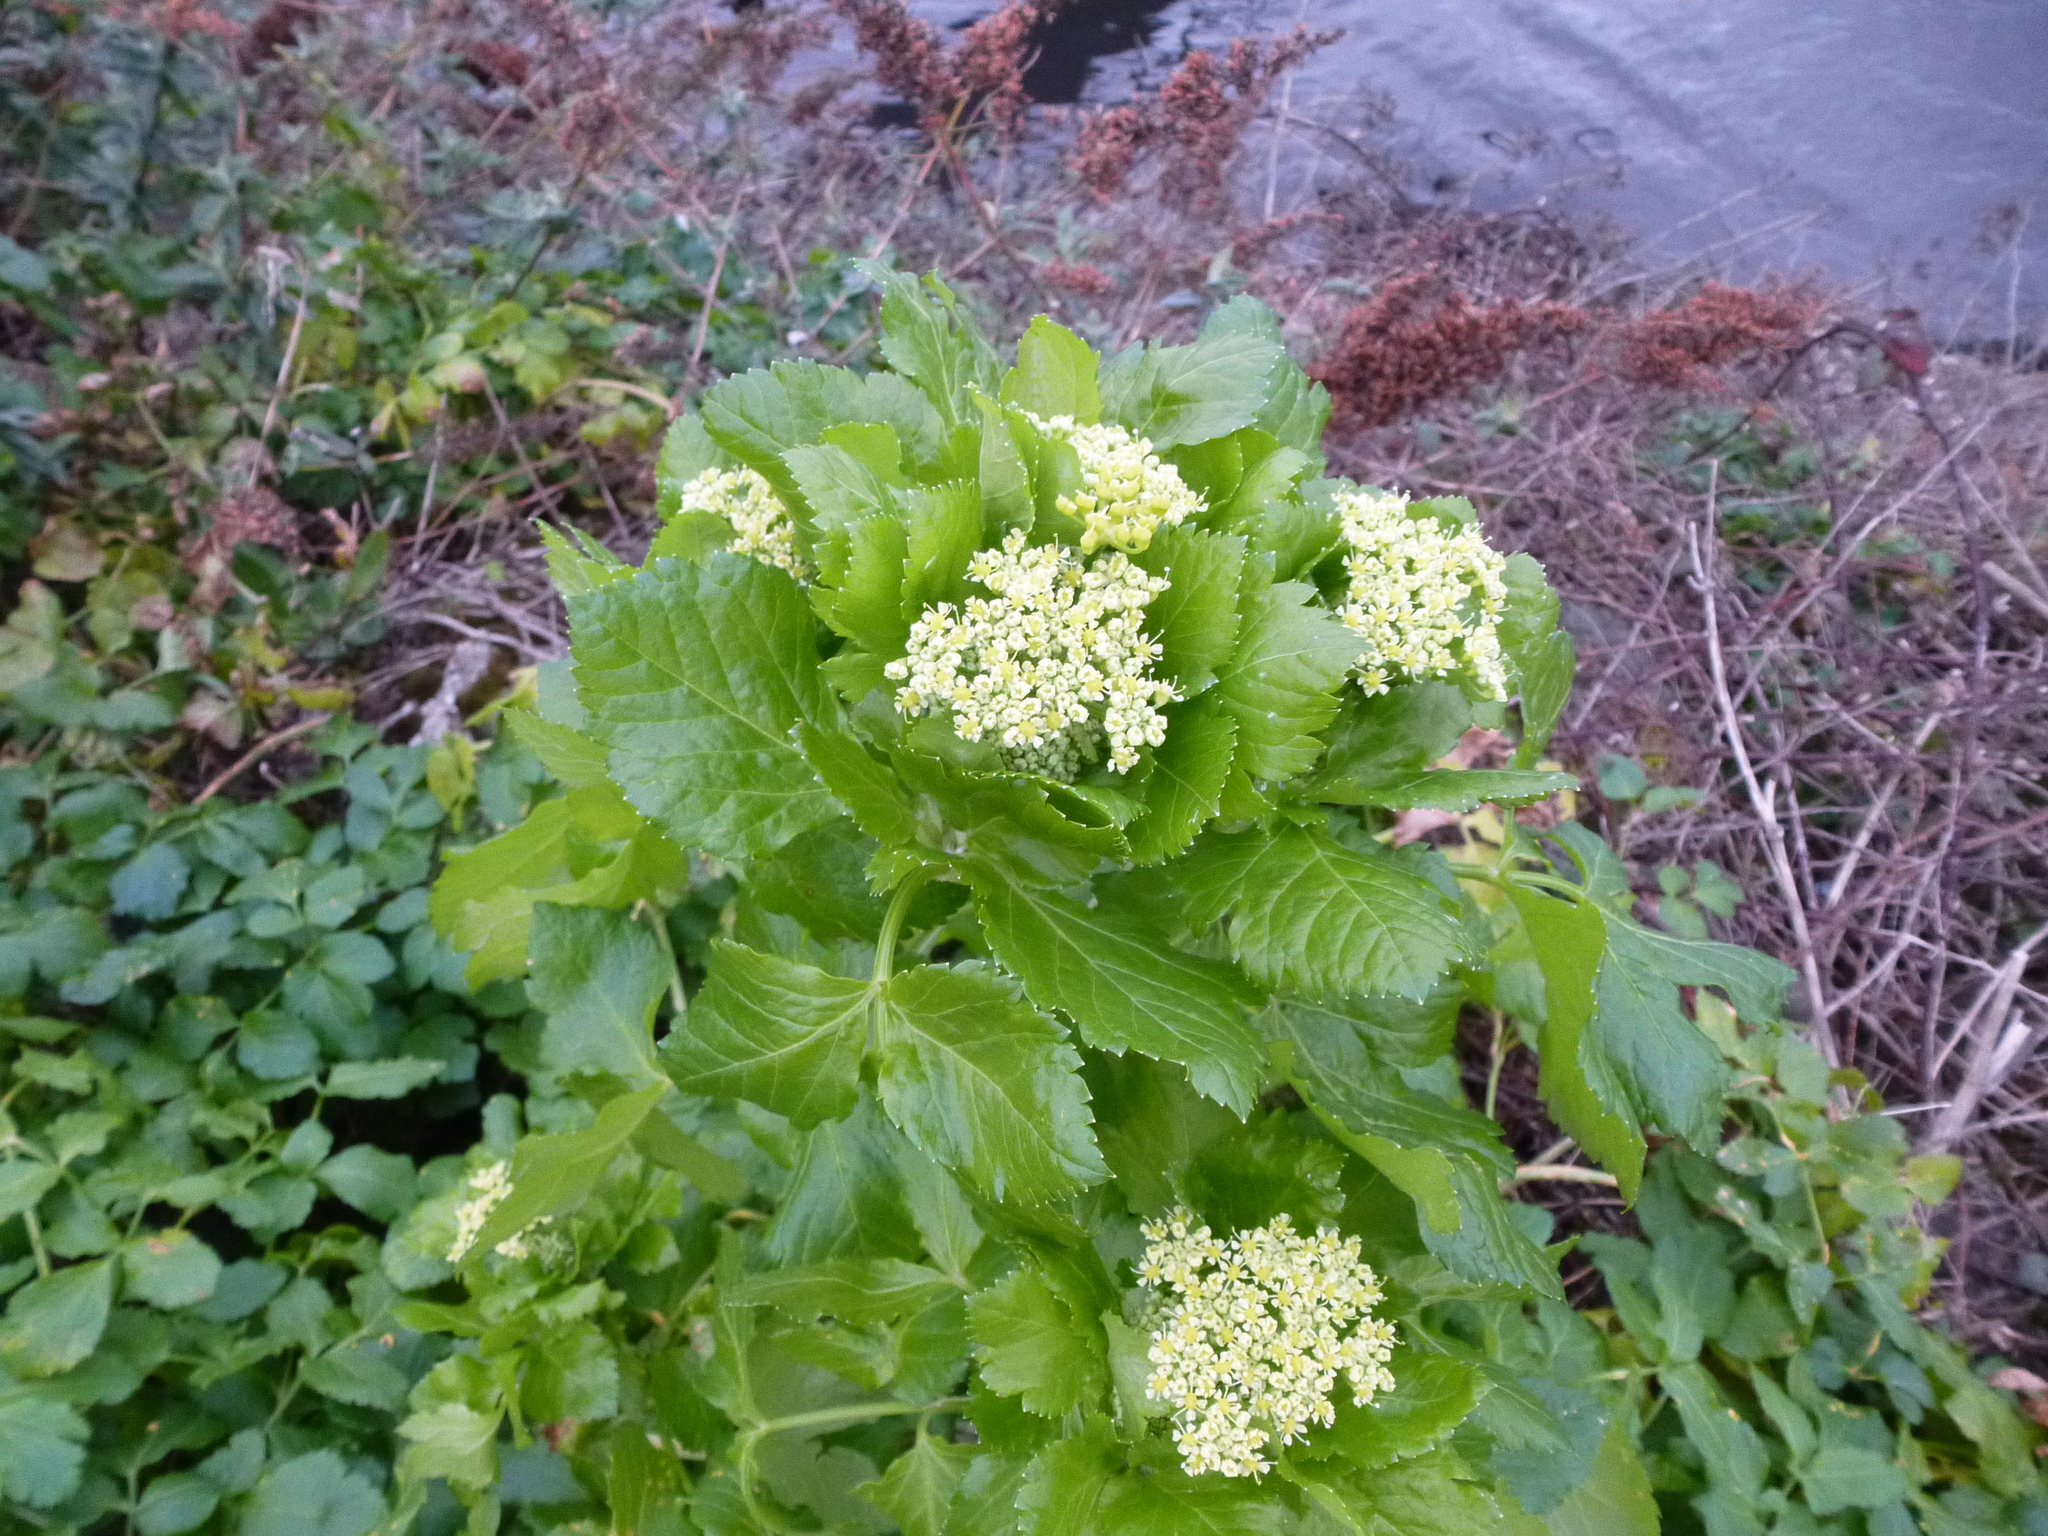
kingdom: Plantae
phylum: Tracheophyta
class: Magnoliopsida
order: Apiales
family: Apiaceae
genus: Smyrnium
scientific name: Smyrnium olusatrum
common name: Alexanders
